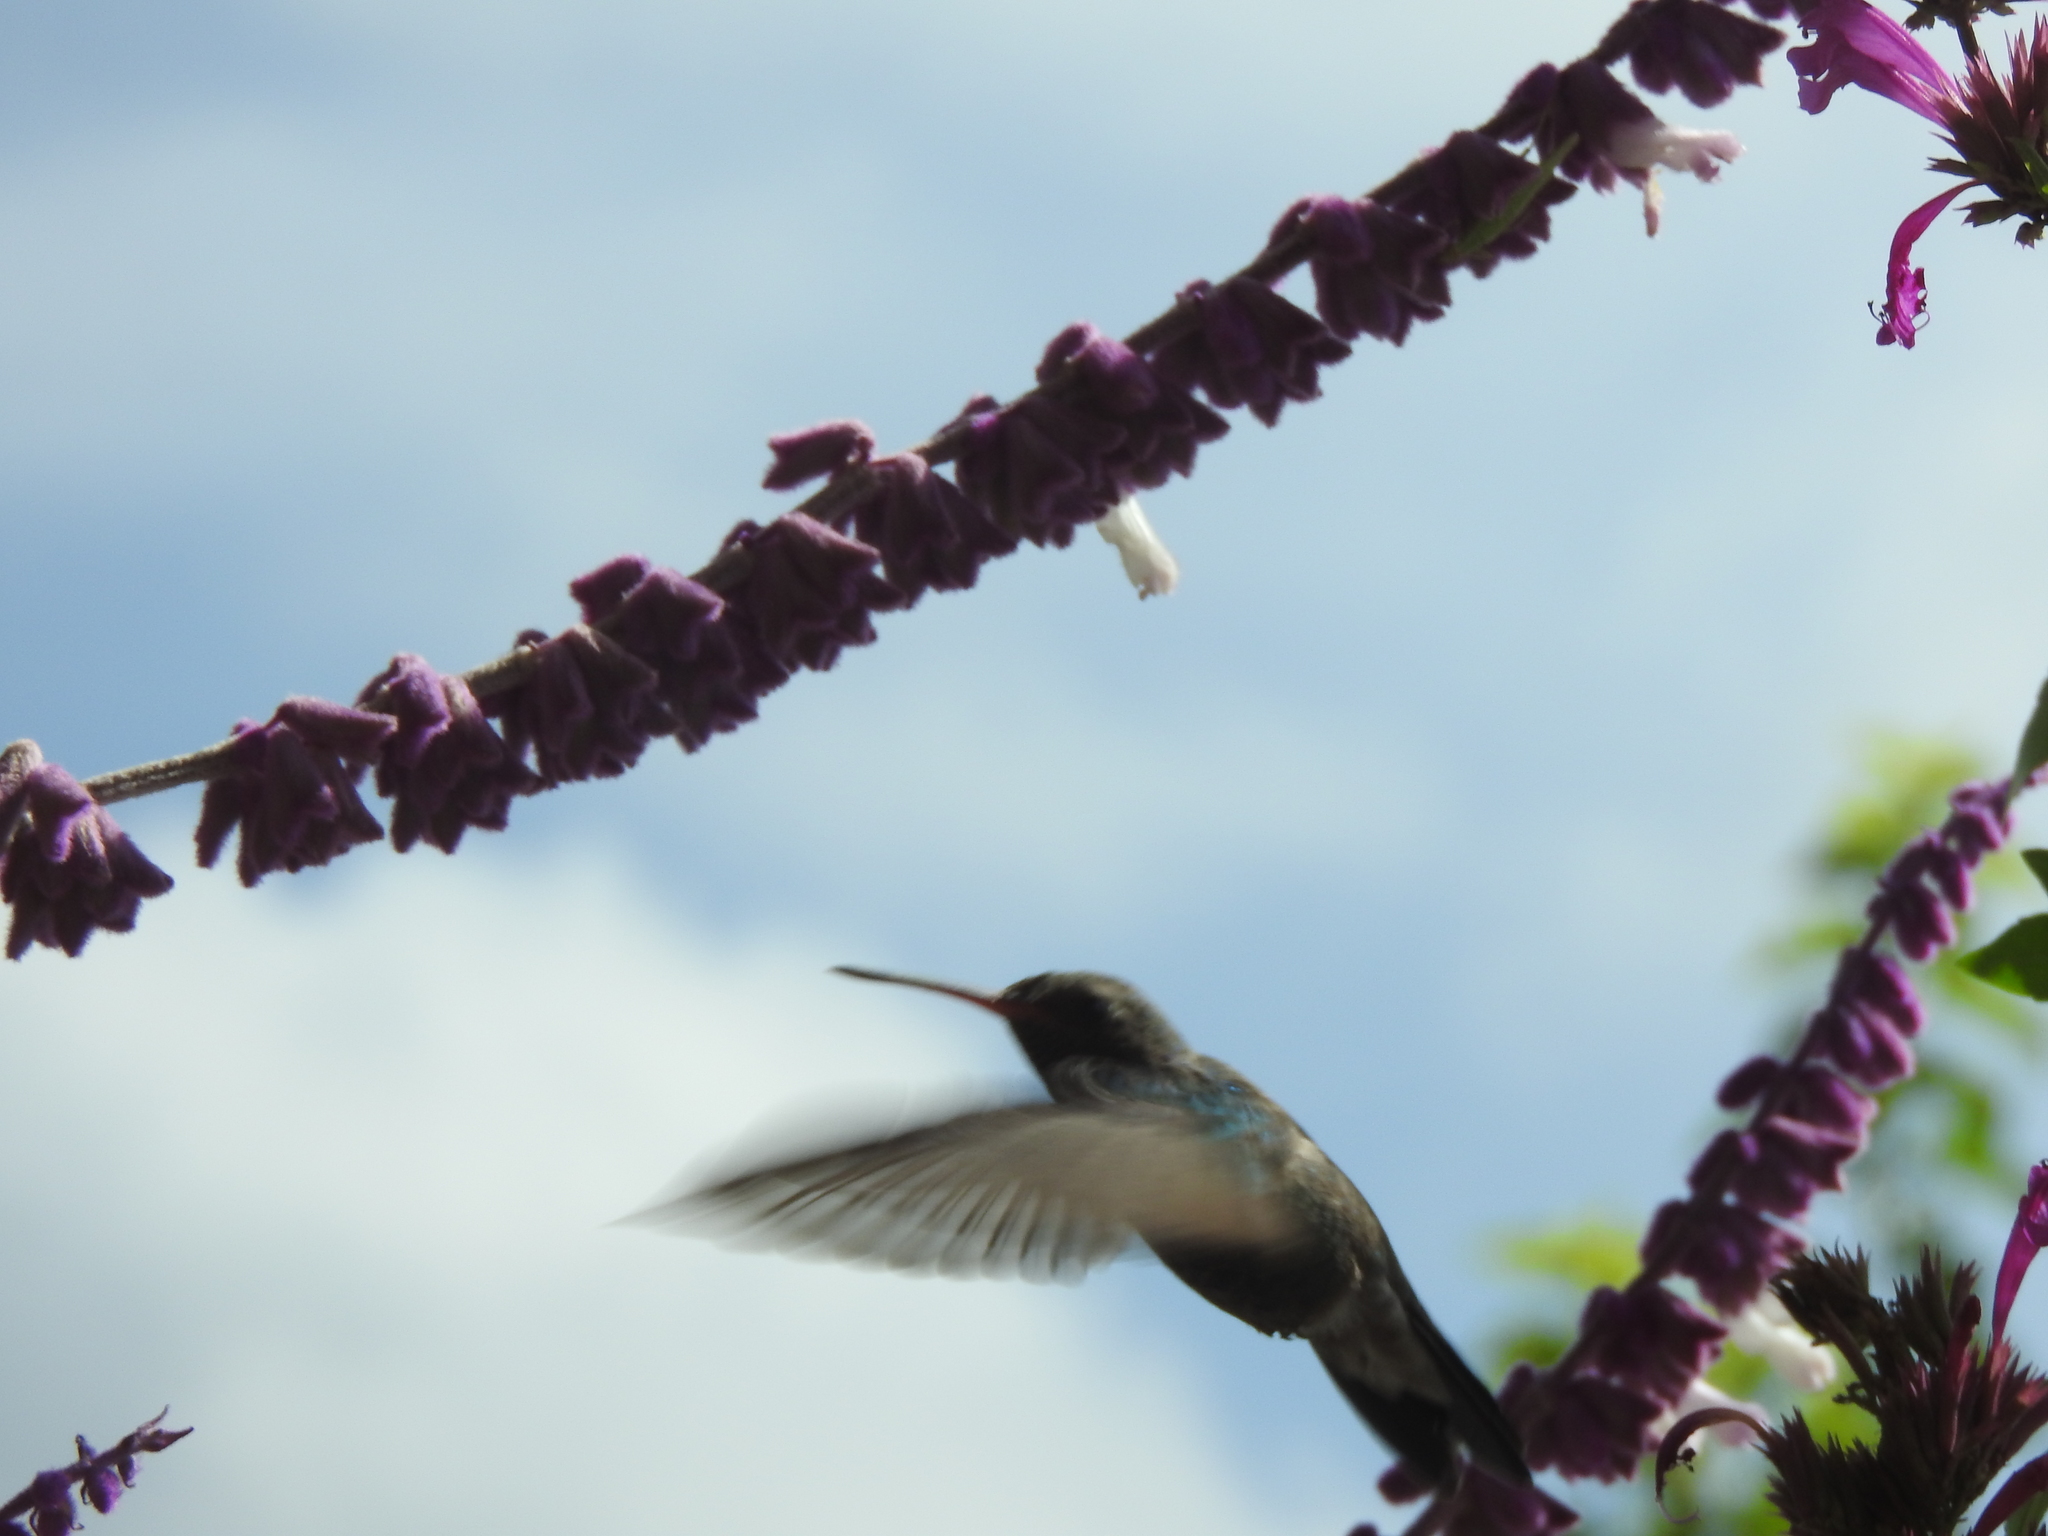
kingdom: Animalia
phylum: Chordata
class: Aves
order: Apodiformes
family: Trochilidae
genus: Cynanthus
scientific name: Cynanthus latirostris
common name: Broad-billed hummingbird
